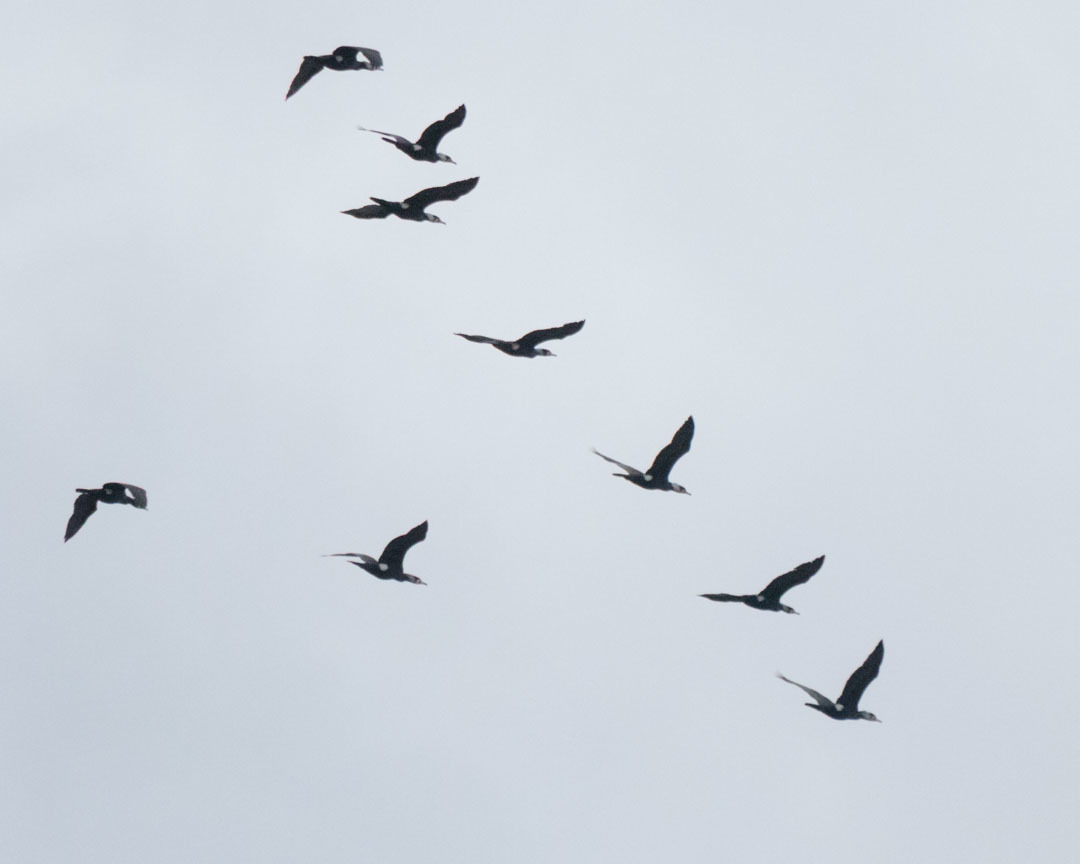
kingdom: Animalia
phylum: Chordata
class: Aves
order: Suliformes
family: Phalacrocoracidae
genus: Phalacrocorax
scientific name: Phalacrocorax carbo
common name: Great cormorant
